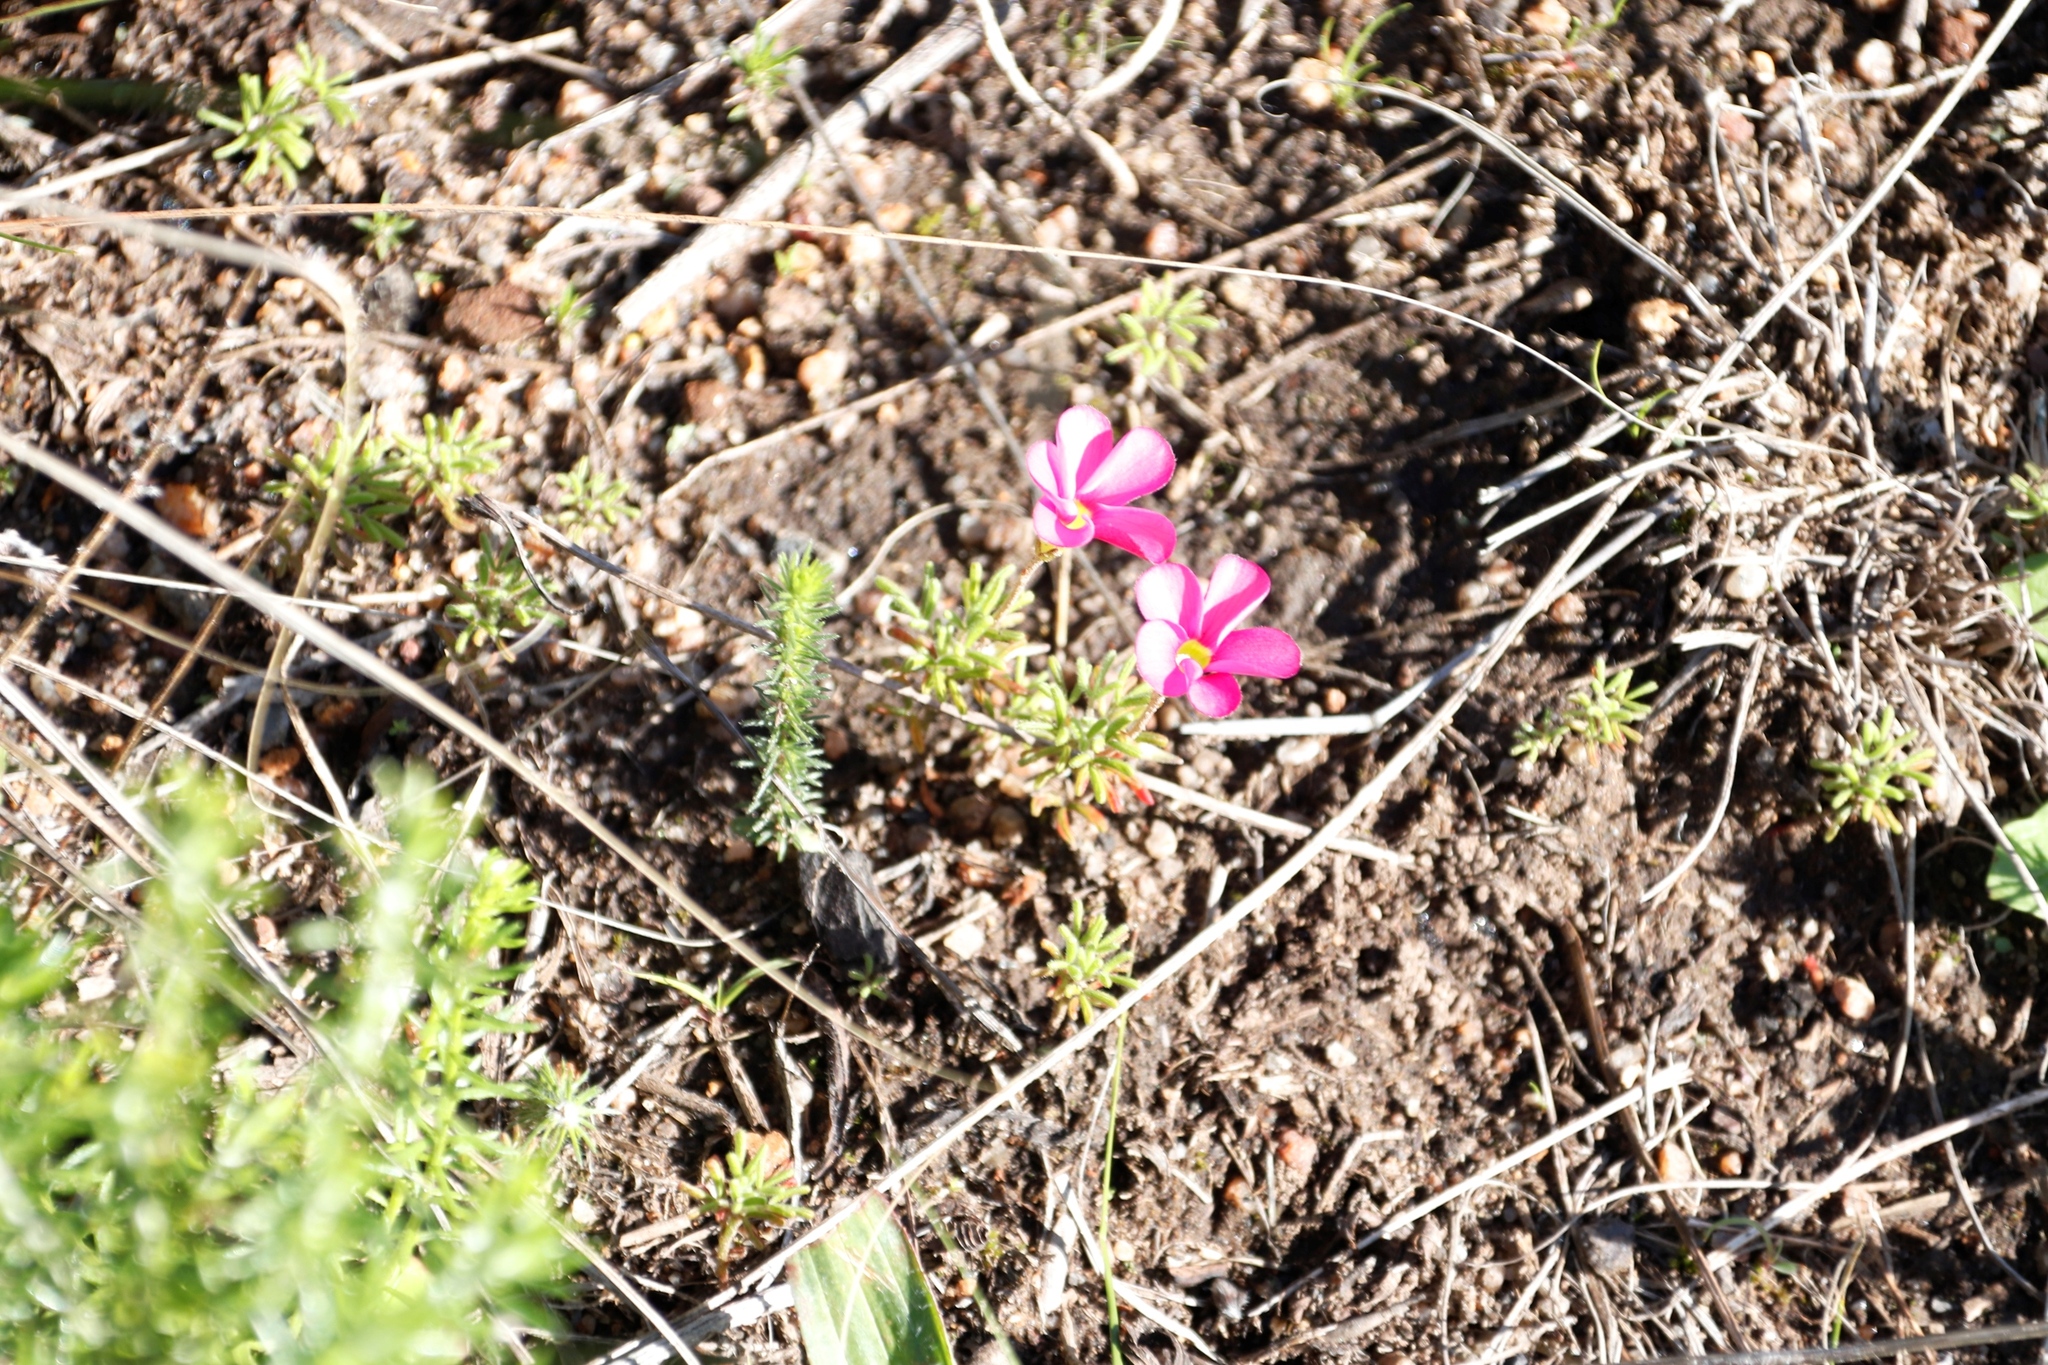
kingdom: Plantae
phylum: Tracheophyta
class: Magnoliopsida
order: Oxalidales
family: Oxalidaceae
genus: Oxalis
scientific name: Oxalis glabra
